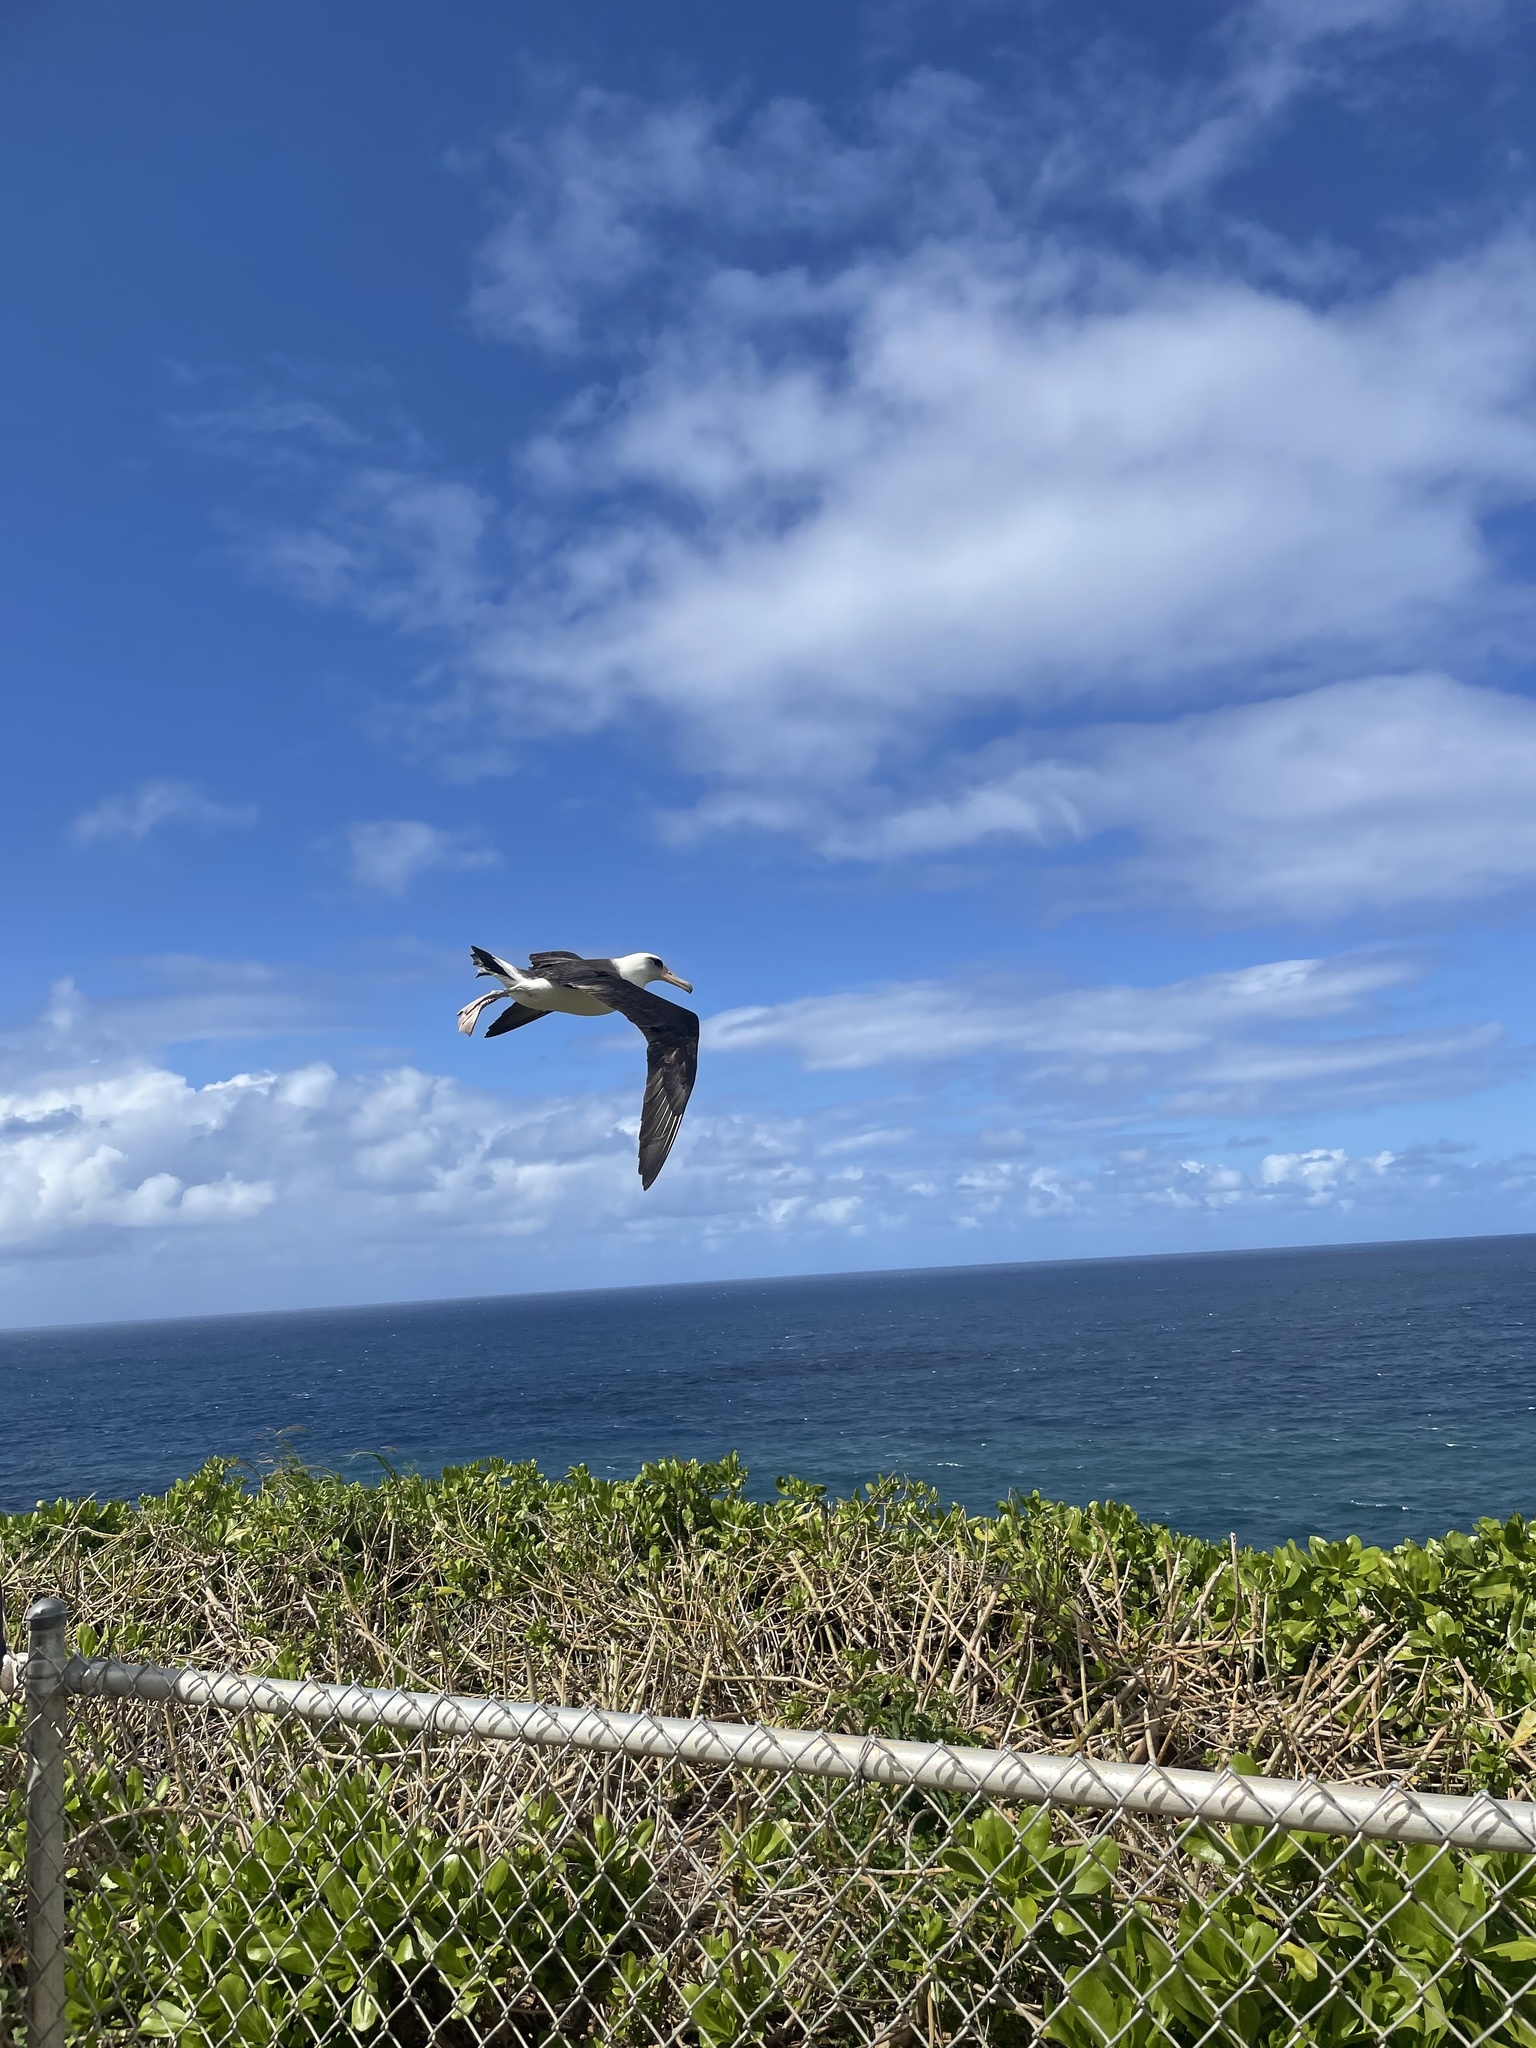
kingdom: Animalia
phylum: Chordata
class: Aves
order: Procellariiformes
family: Diomedeidae
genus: Phoebastria
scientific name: Phoebastria immutabilis
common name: Laysan albatross
